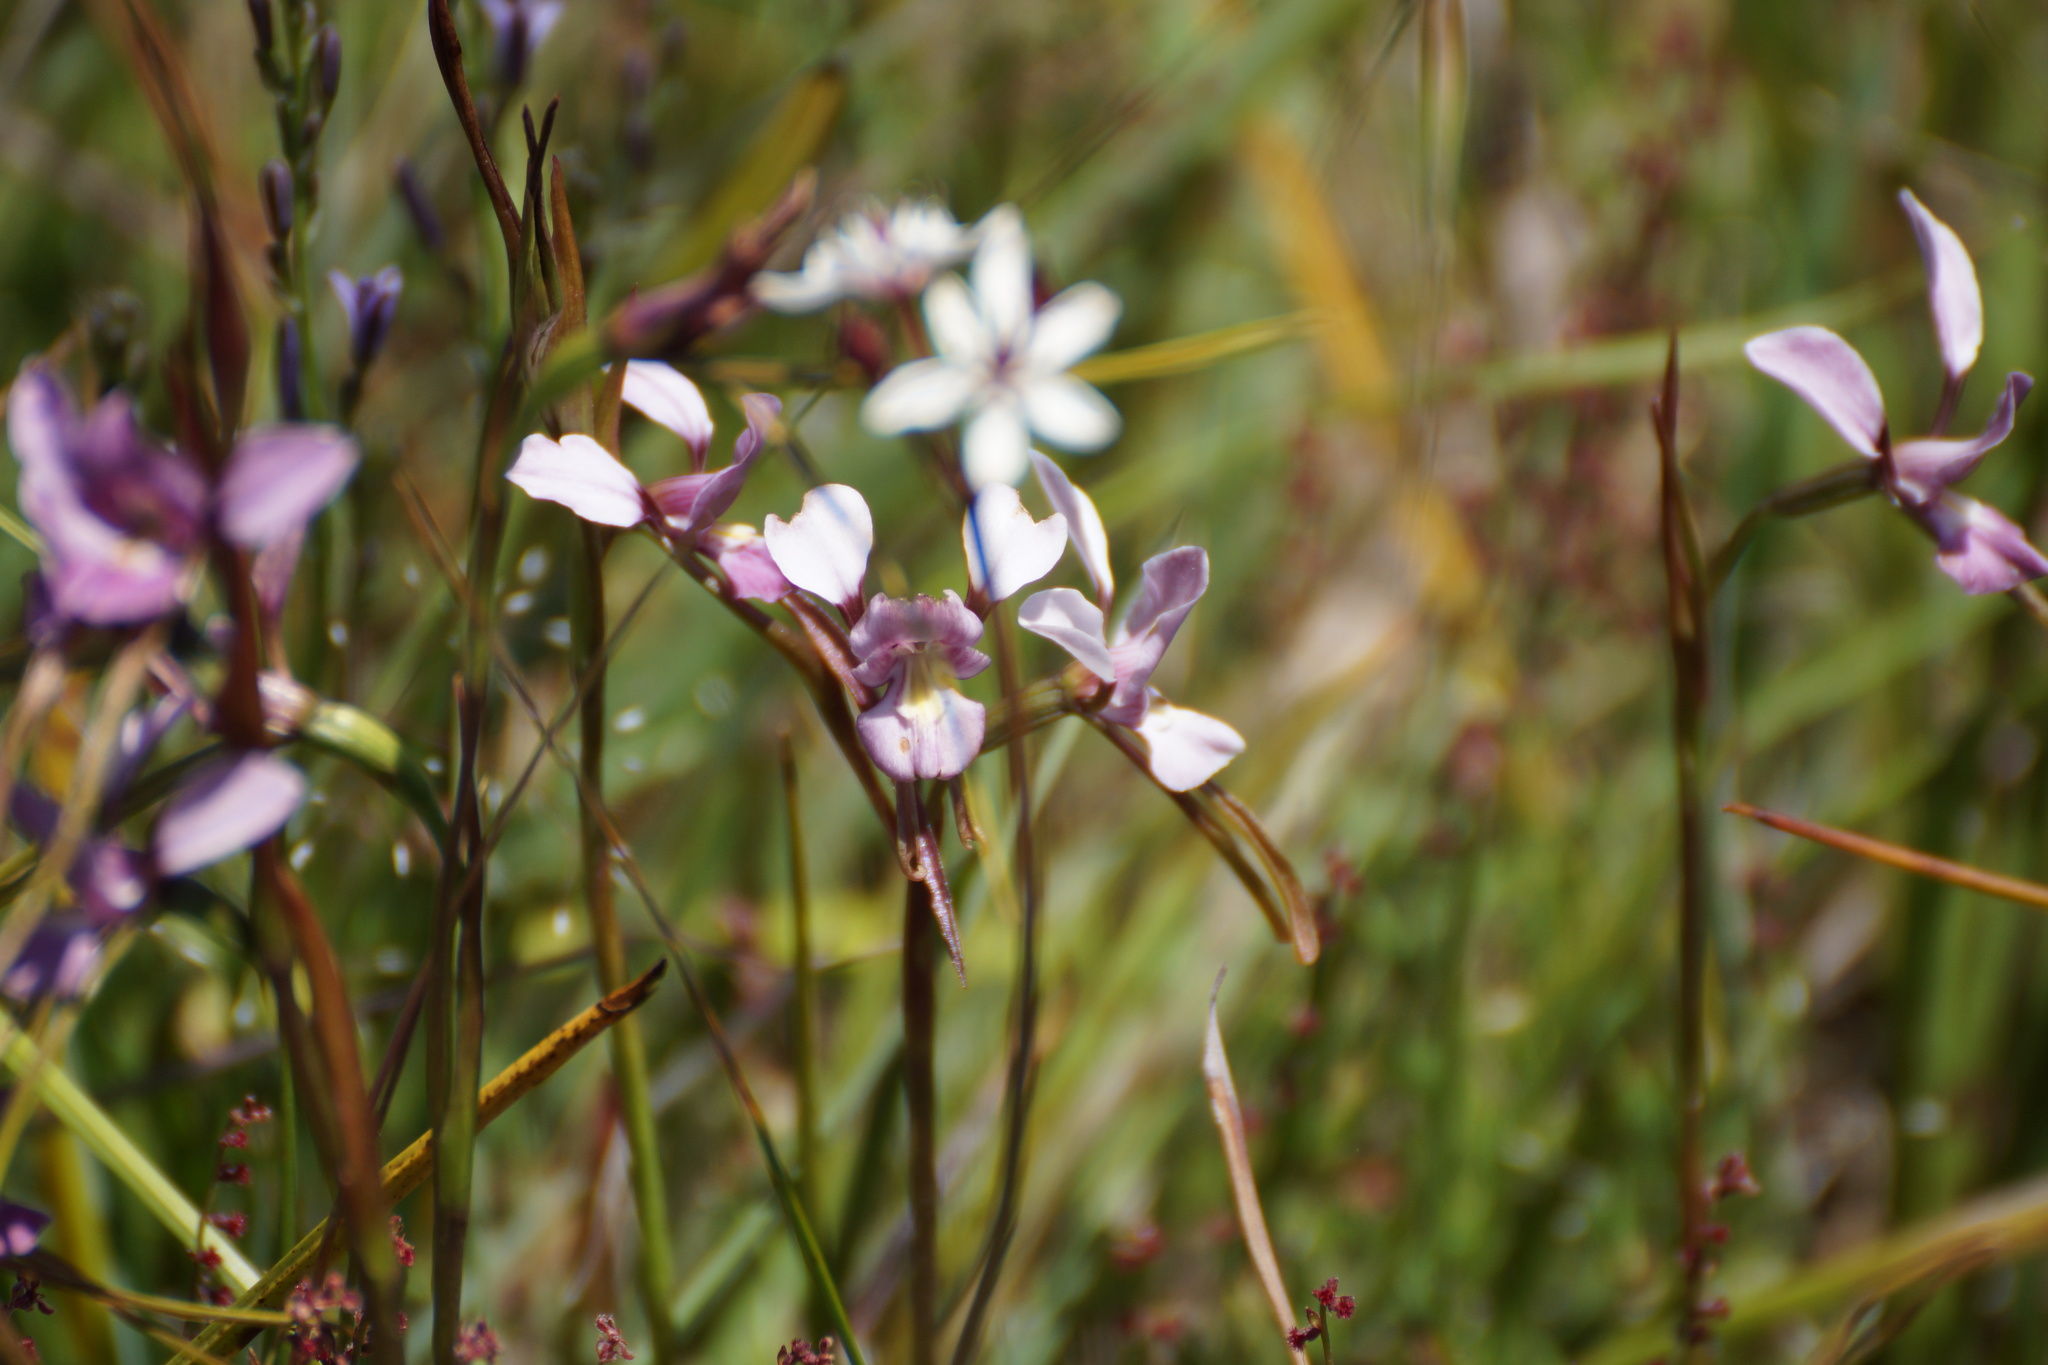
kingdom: Plantae
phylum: Tracheophyta
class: Liliopsida
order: Asparagales
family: Orchidaceae
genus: Diuris
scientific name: Diuris punctata
